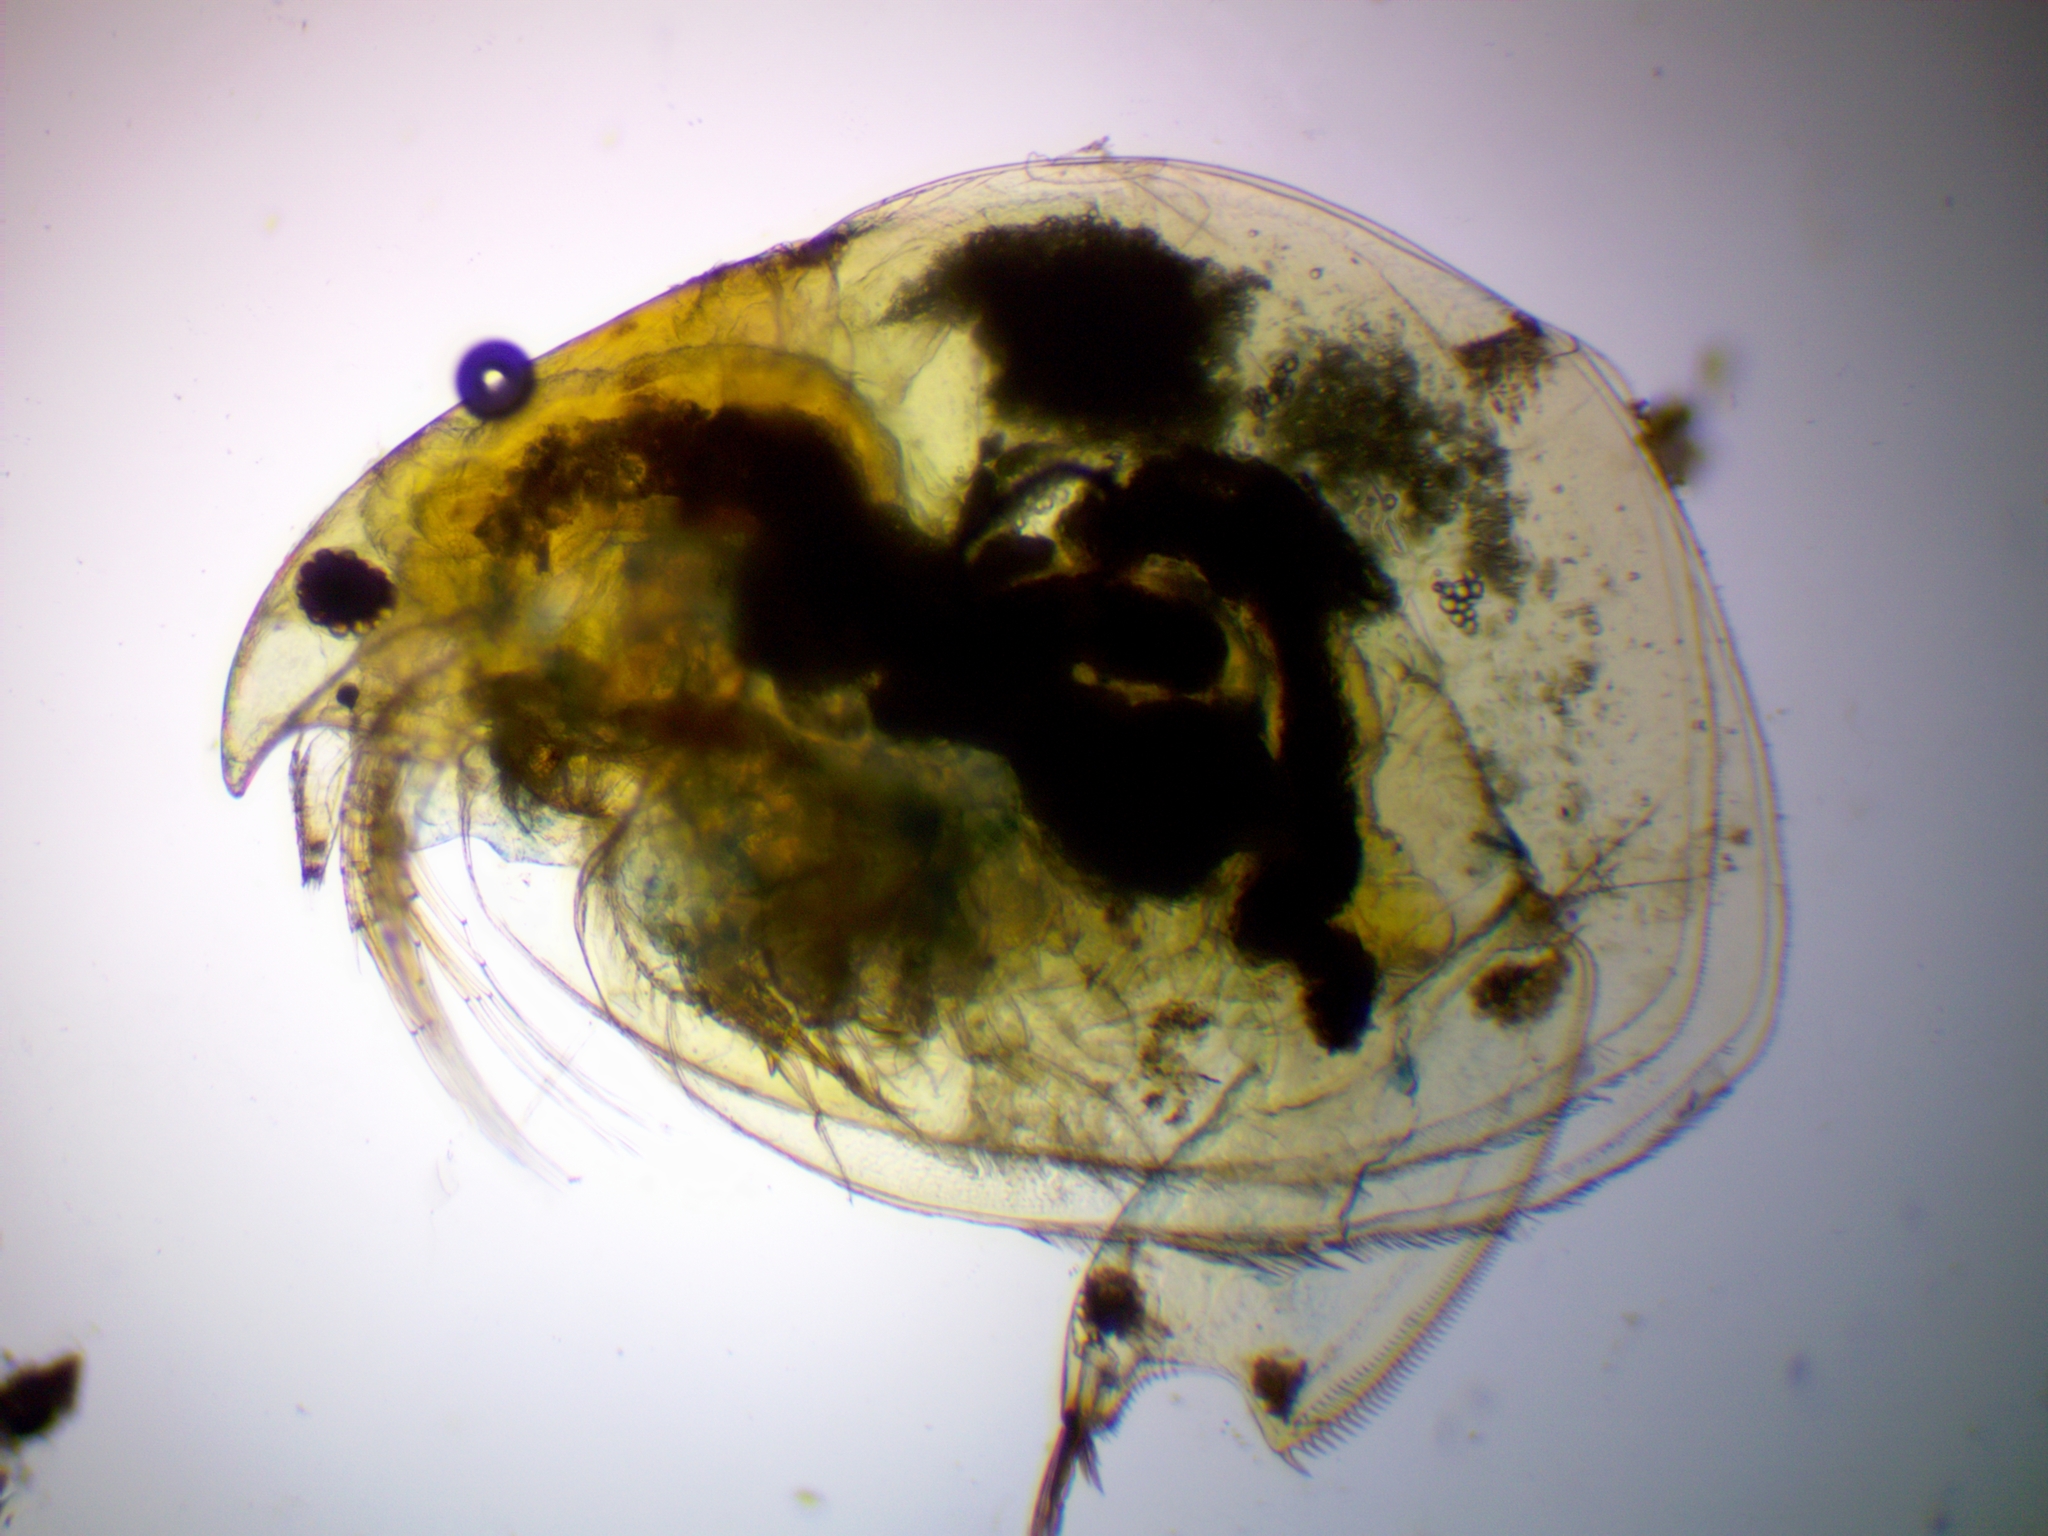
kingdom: Animalia
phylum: Arthropoda
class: Branchiopoda
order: Diplostraca
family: Eurycercidae
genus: Eurycercus
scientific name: Eurycercus lamellatus
